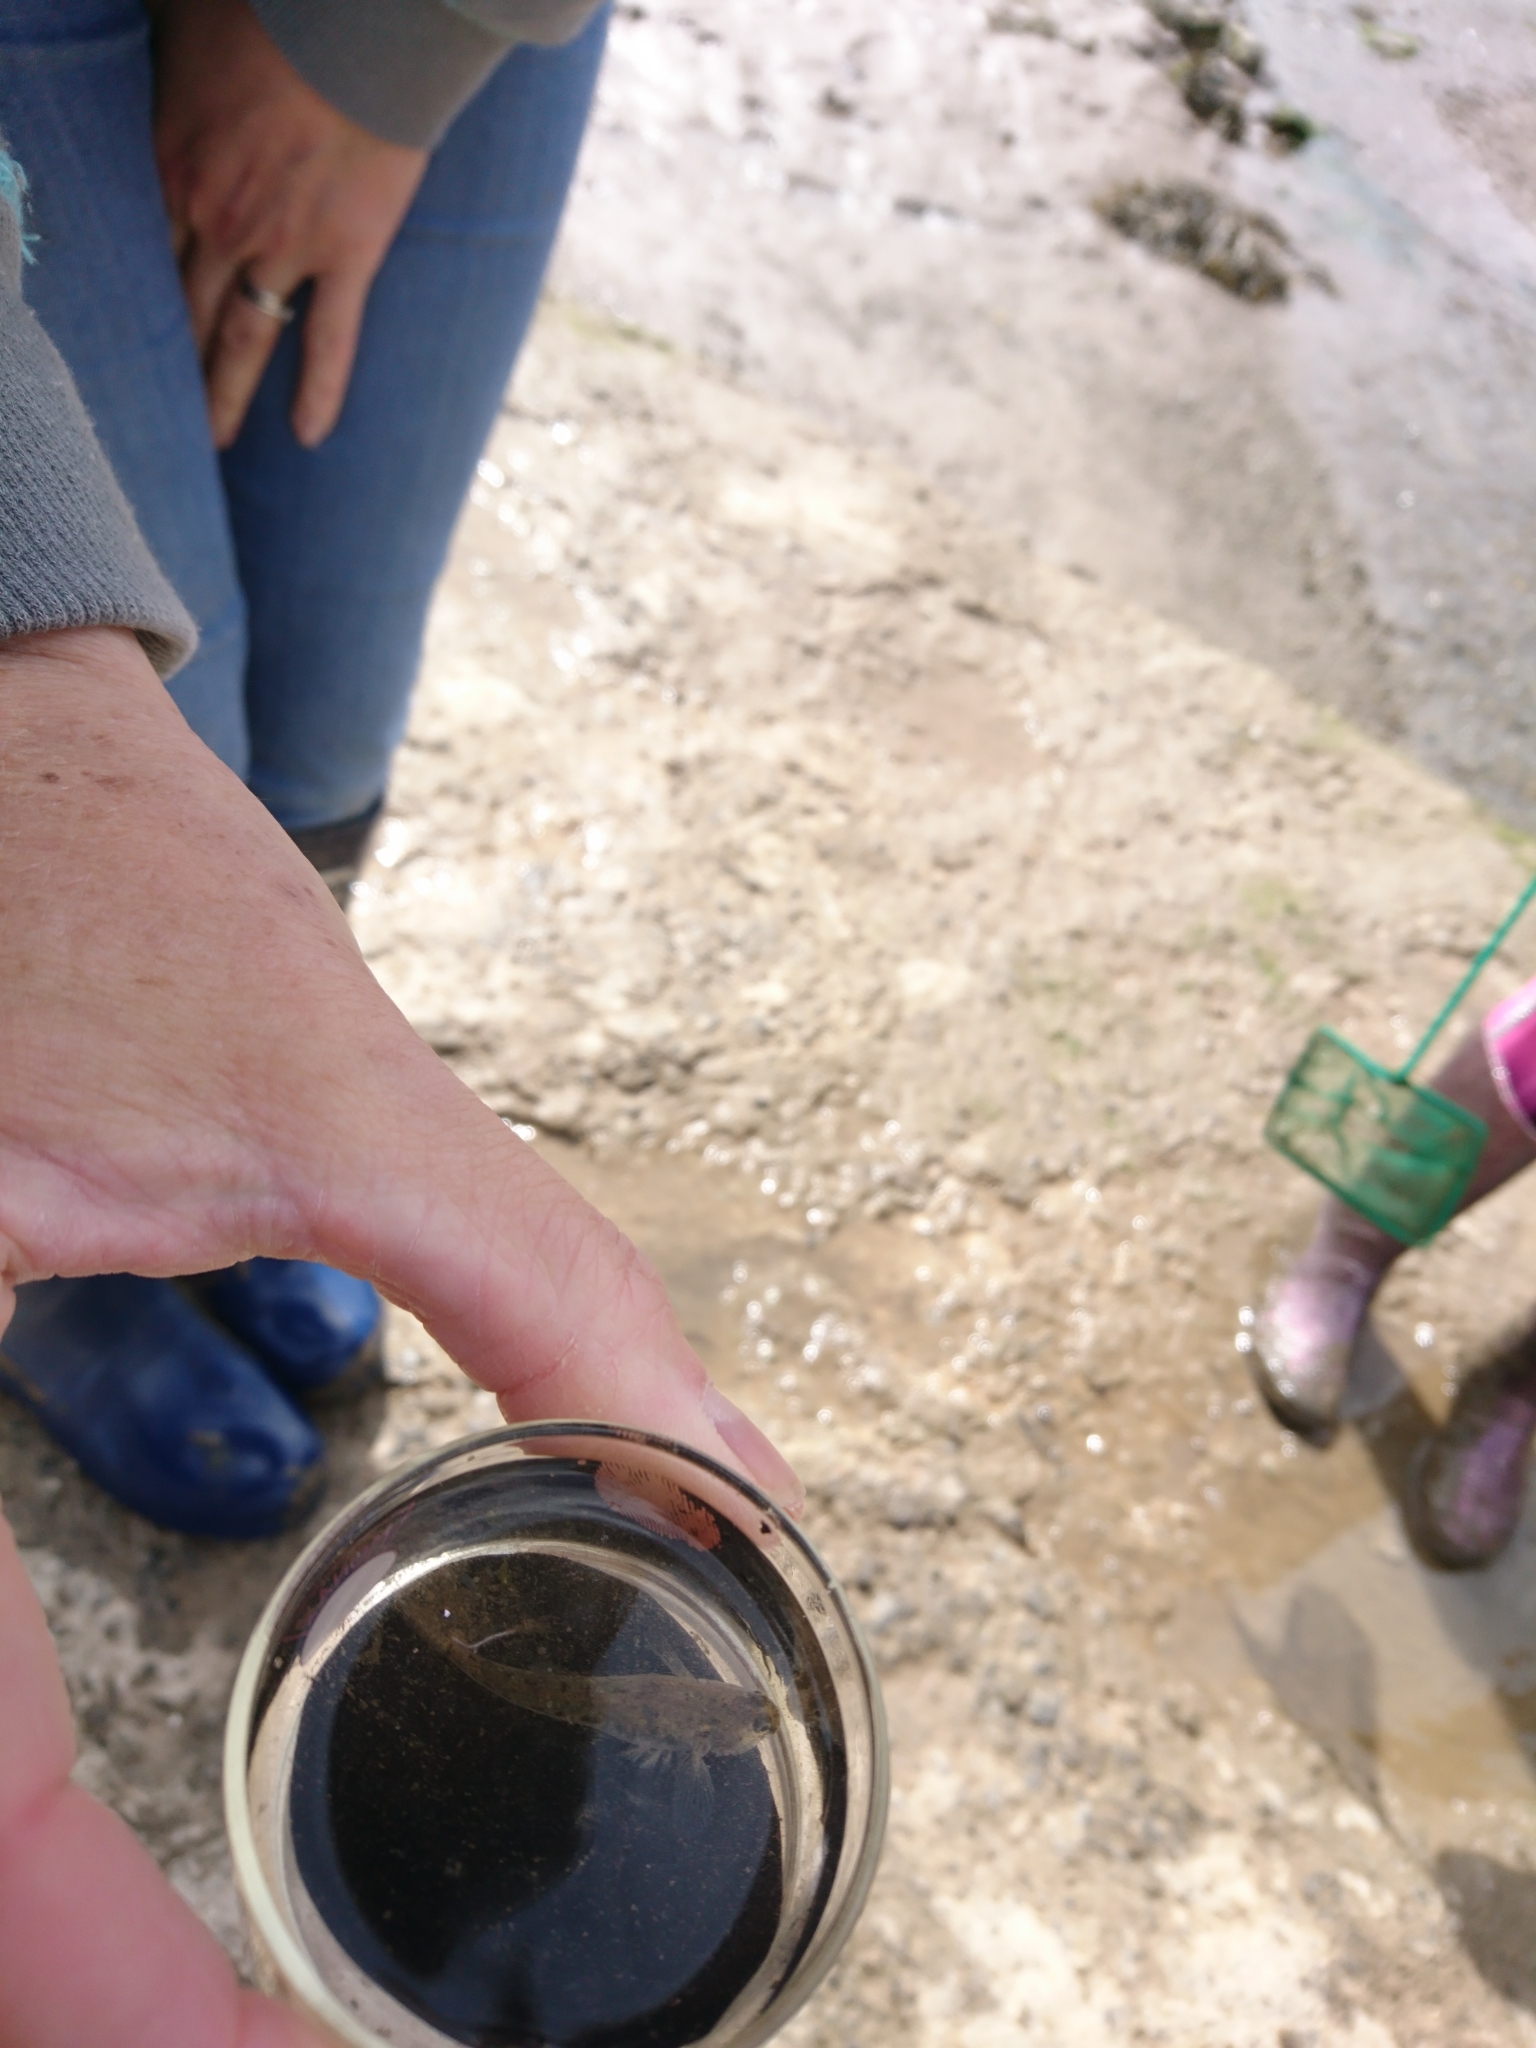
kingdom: Animalia
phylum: Chordata
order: Perciformes
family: Gobiidae
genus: Pomatoschistus
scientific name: Pomatoschistus microps
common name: Common goby
